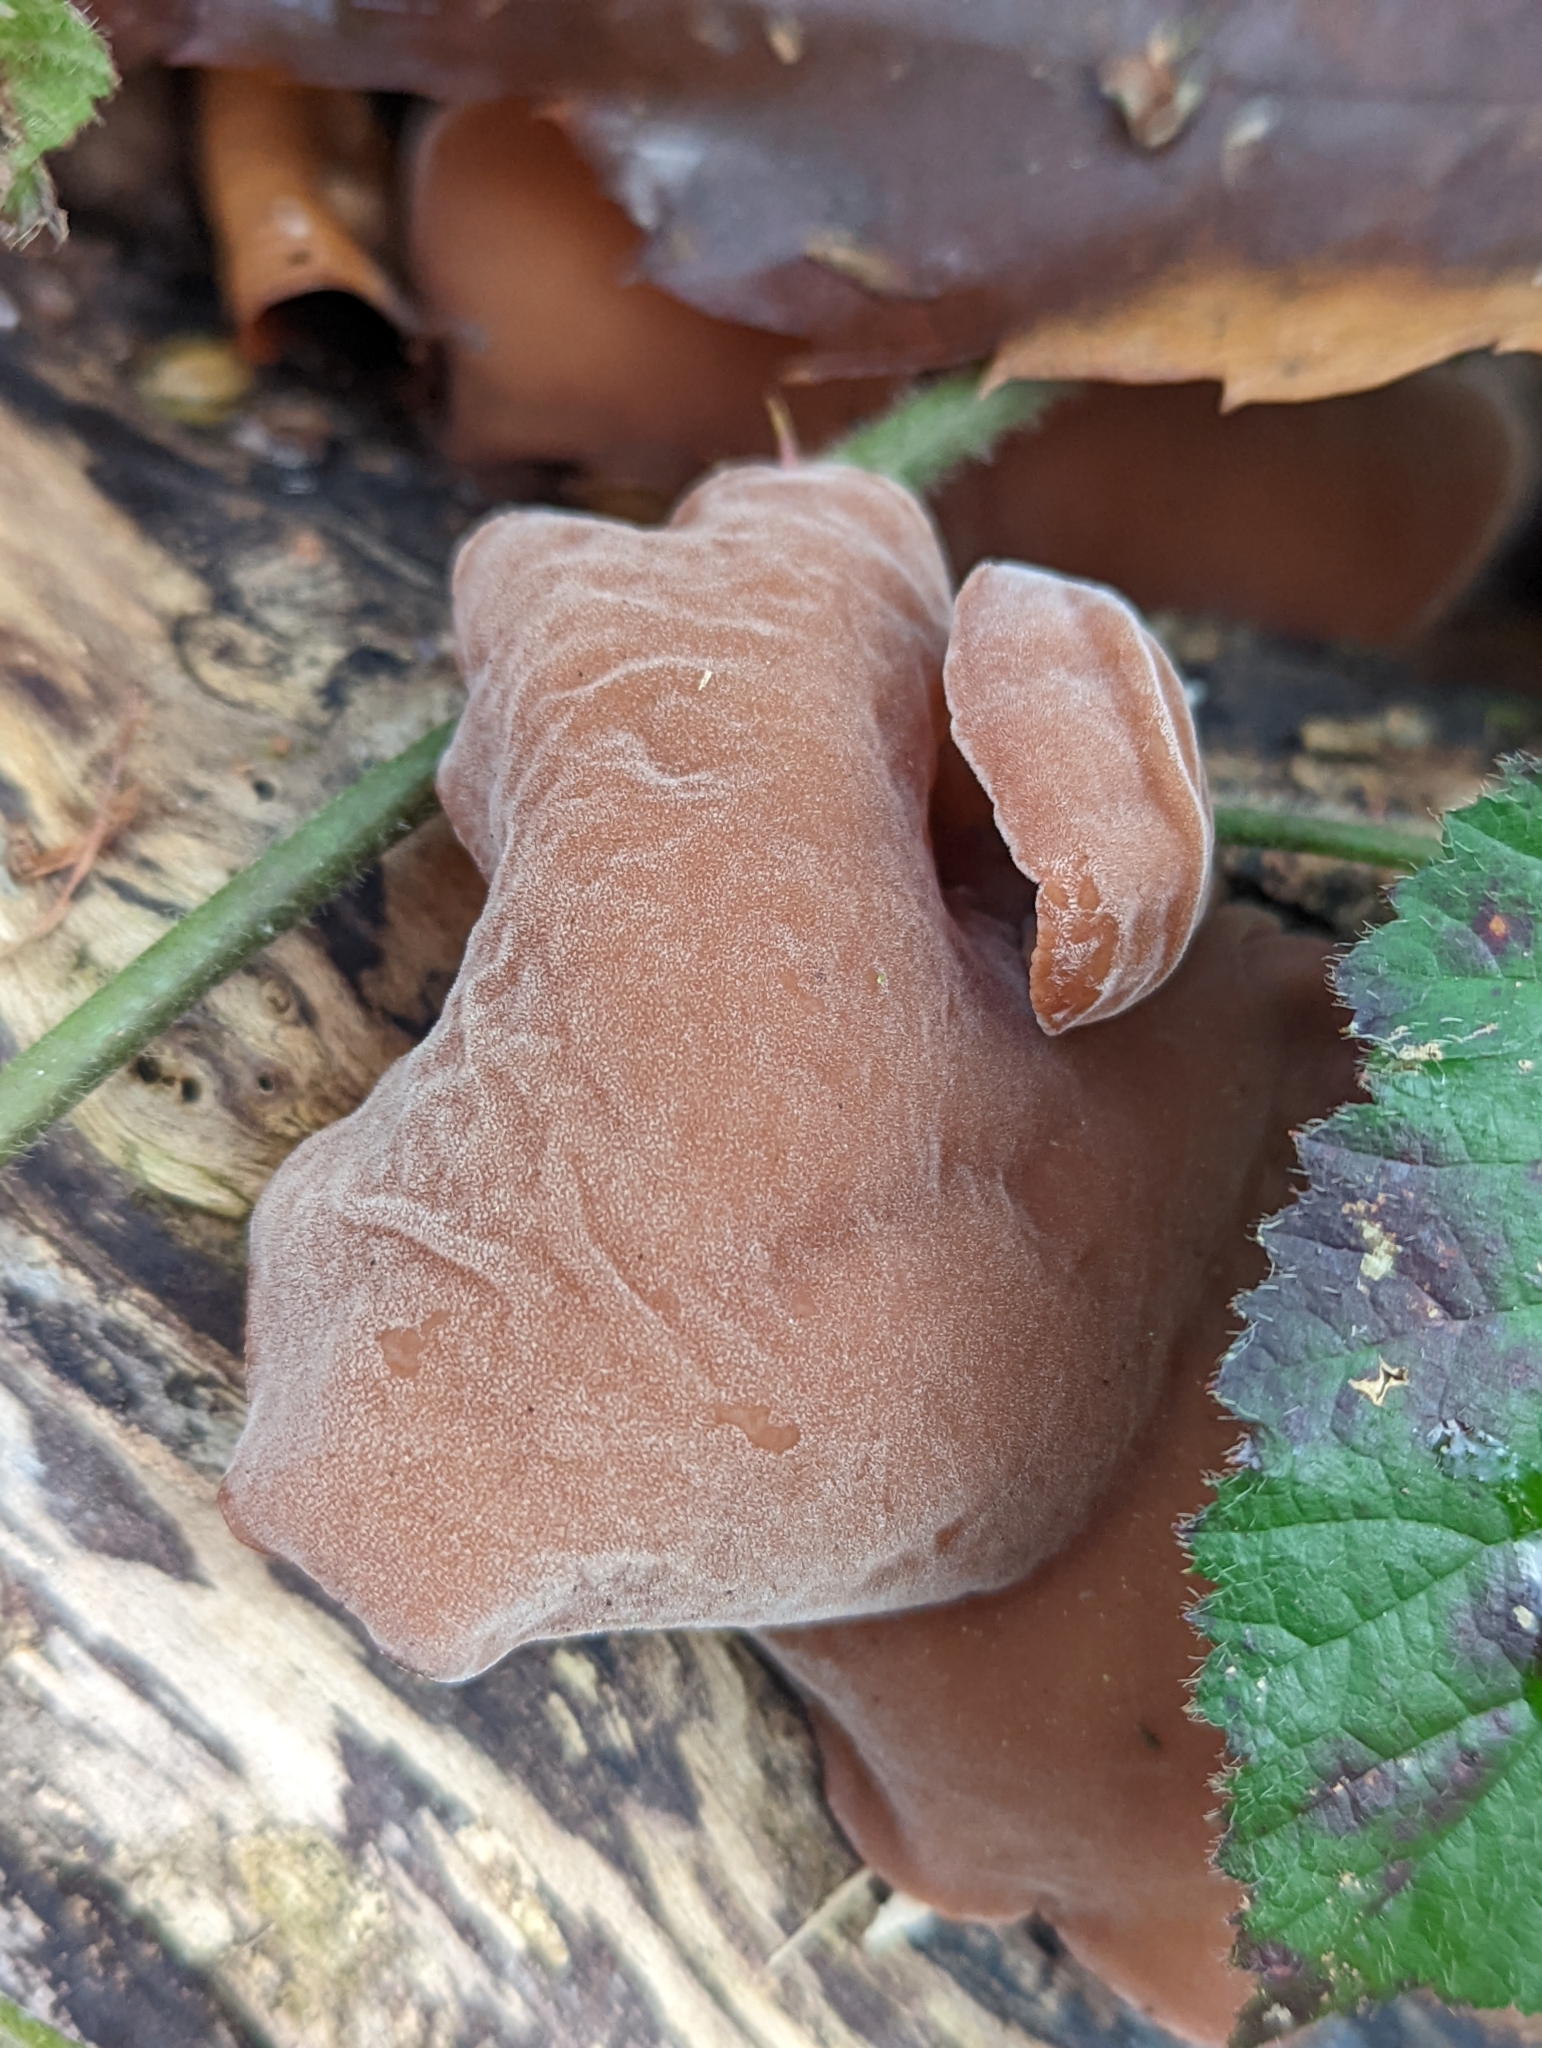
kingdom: Fungi
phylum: Basidiomycota
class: Agaricomycetes
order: Auriculariales
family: Auriculariaceae
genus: Auricularia
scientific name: Auricularia auricula-judae
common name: Jelly ear
